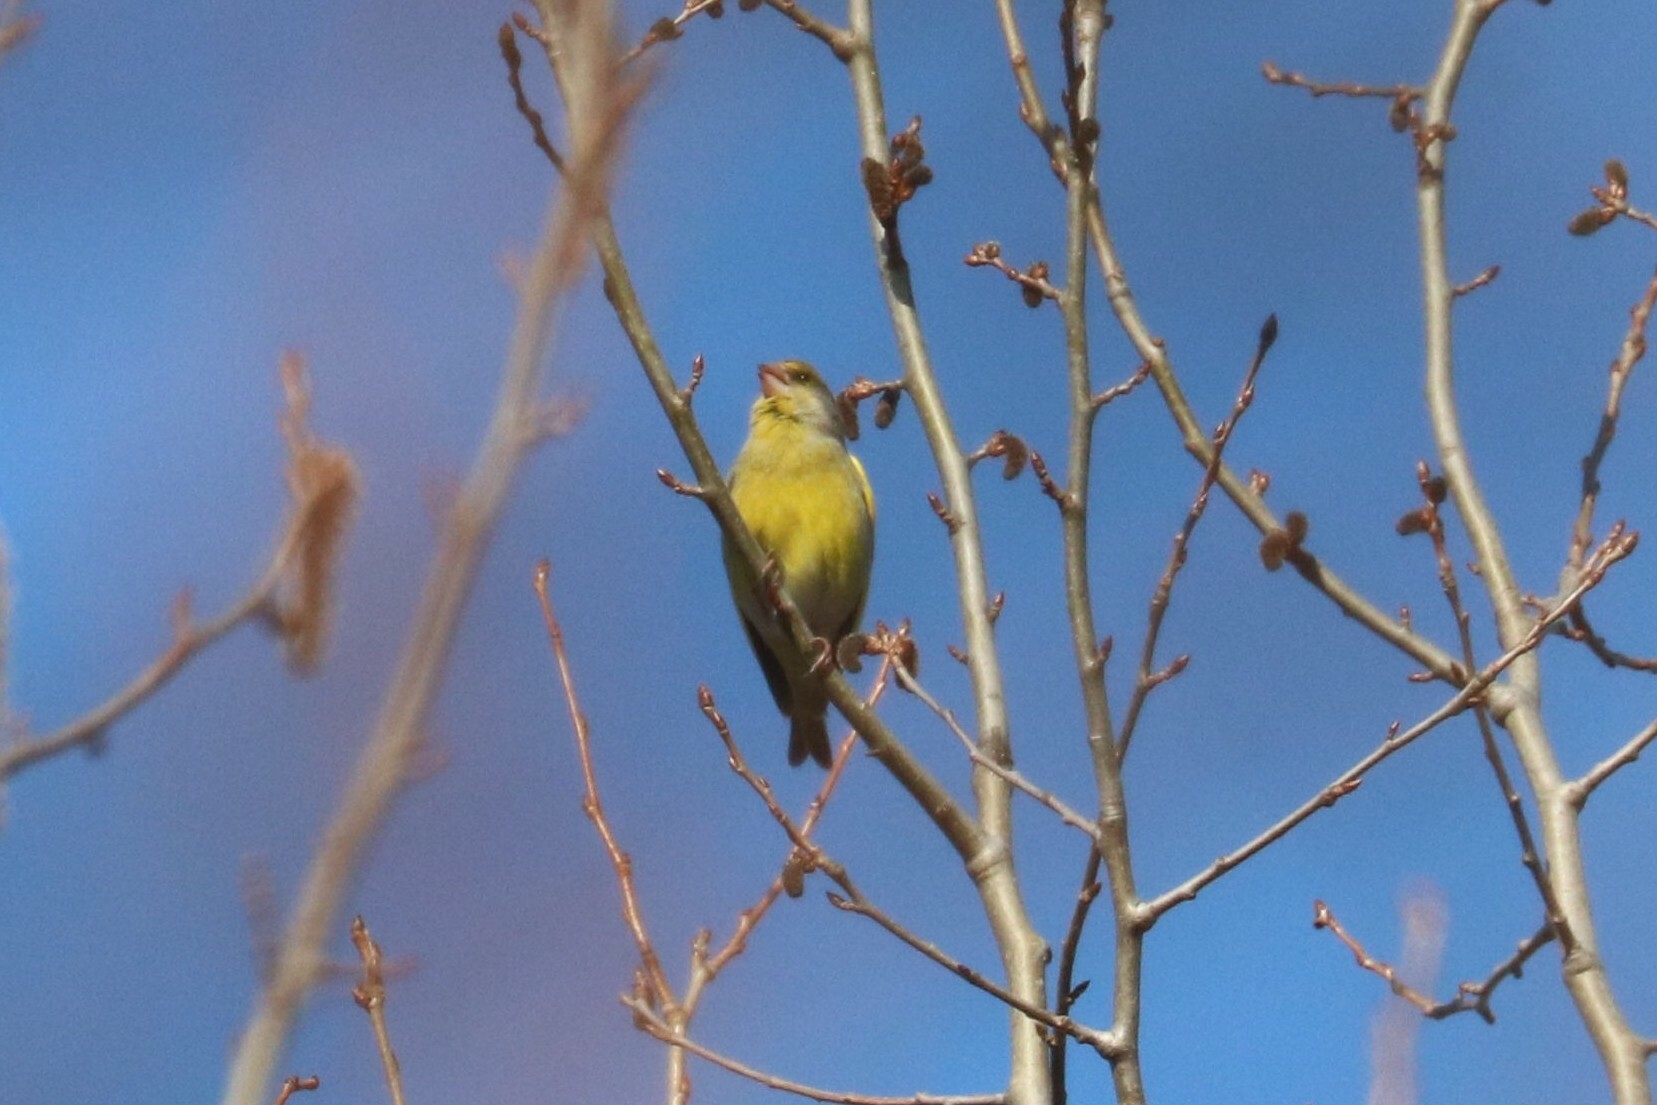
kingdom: Plantae
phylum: Tracheophyta
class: Liliopsida
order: Poales
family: Poaceae
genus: Chloris
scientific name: Chloris chloris
